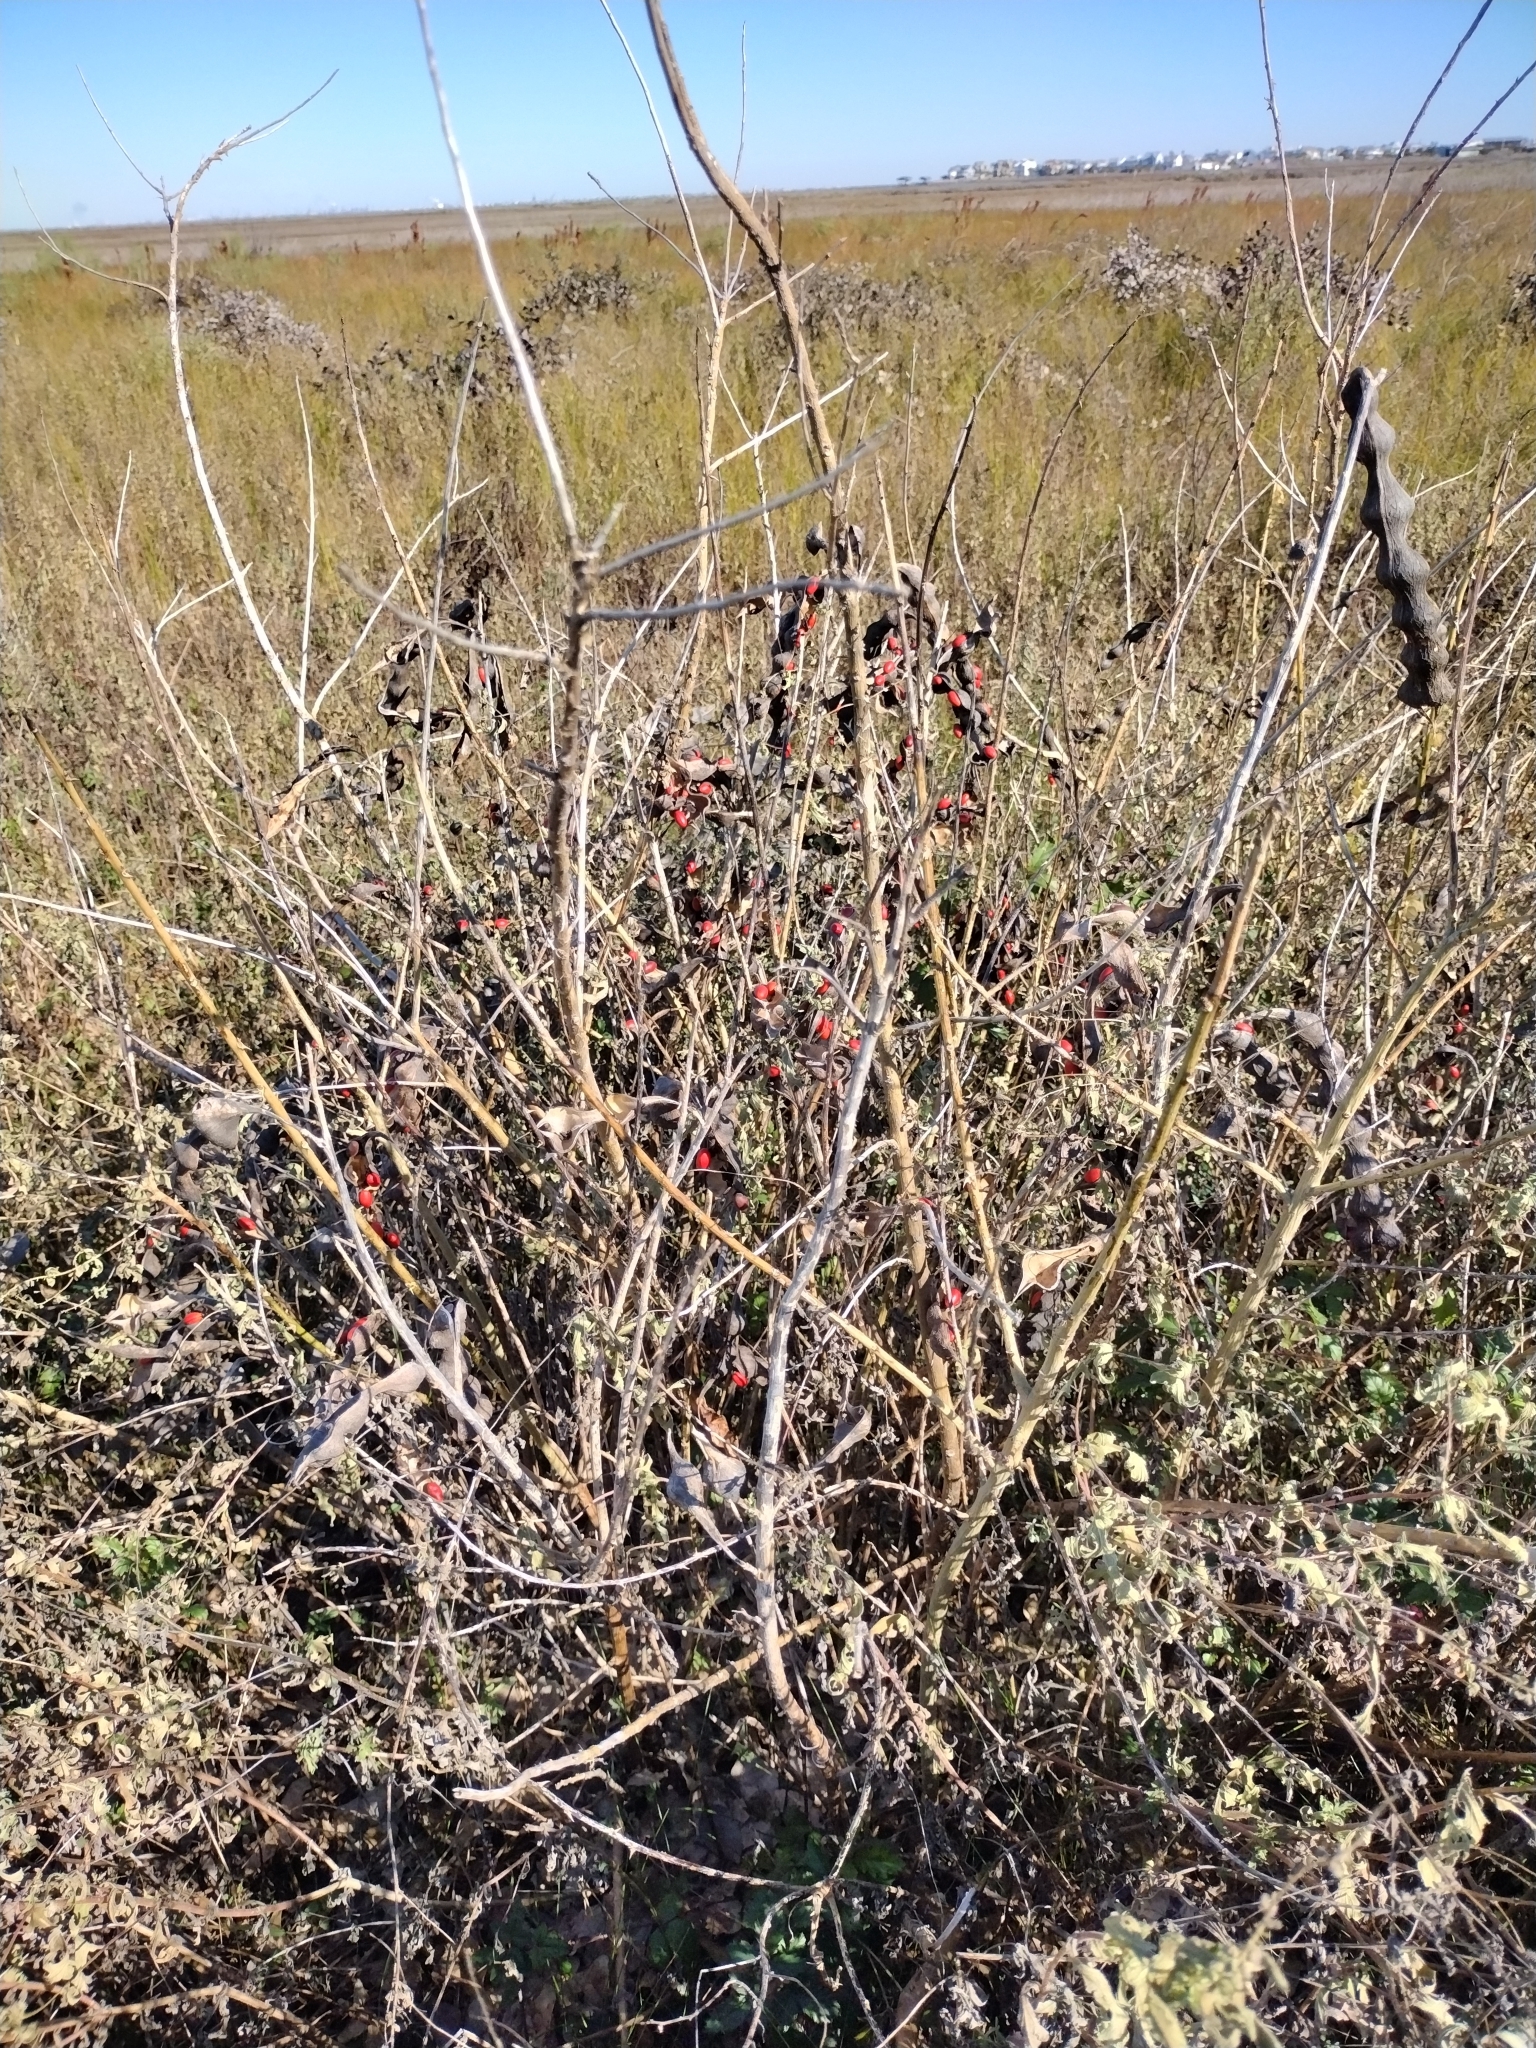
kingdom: Plantae
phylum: Tracheophyta
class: Magnoliopsida
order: Fabales
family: Fabaceae
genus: Erythrina
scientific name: Erythrina herbacea
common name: Coral-bean
